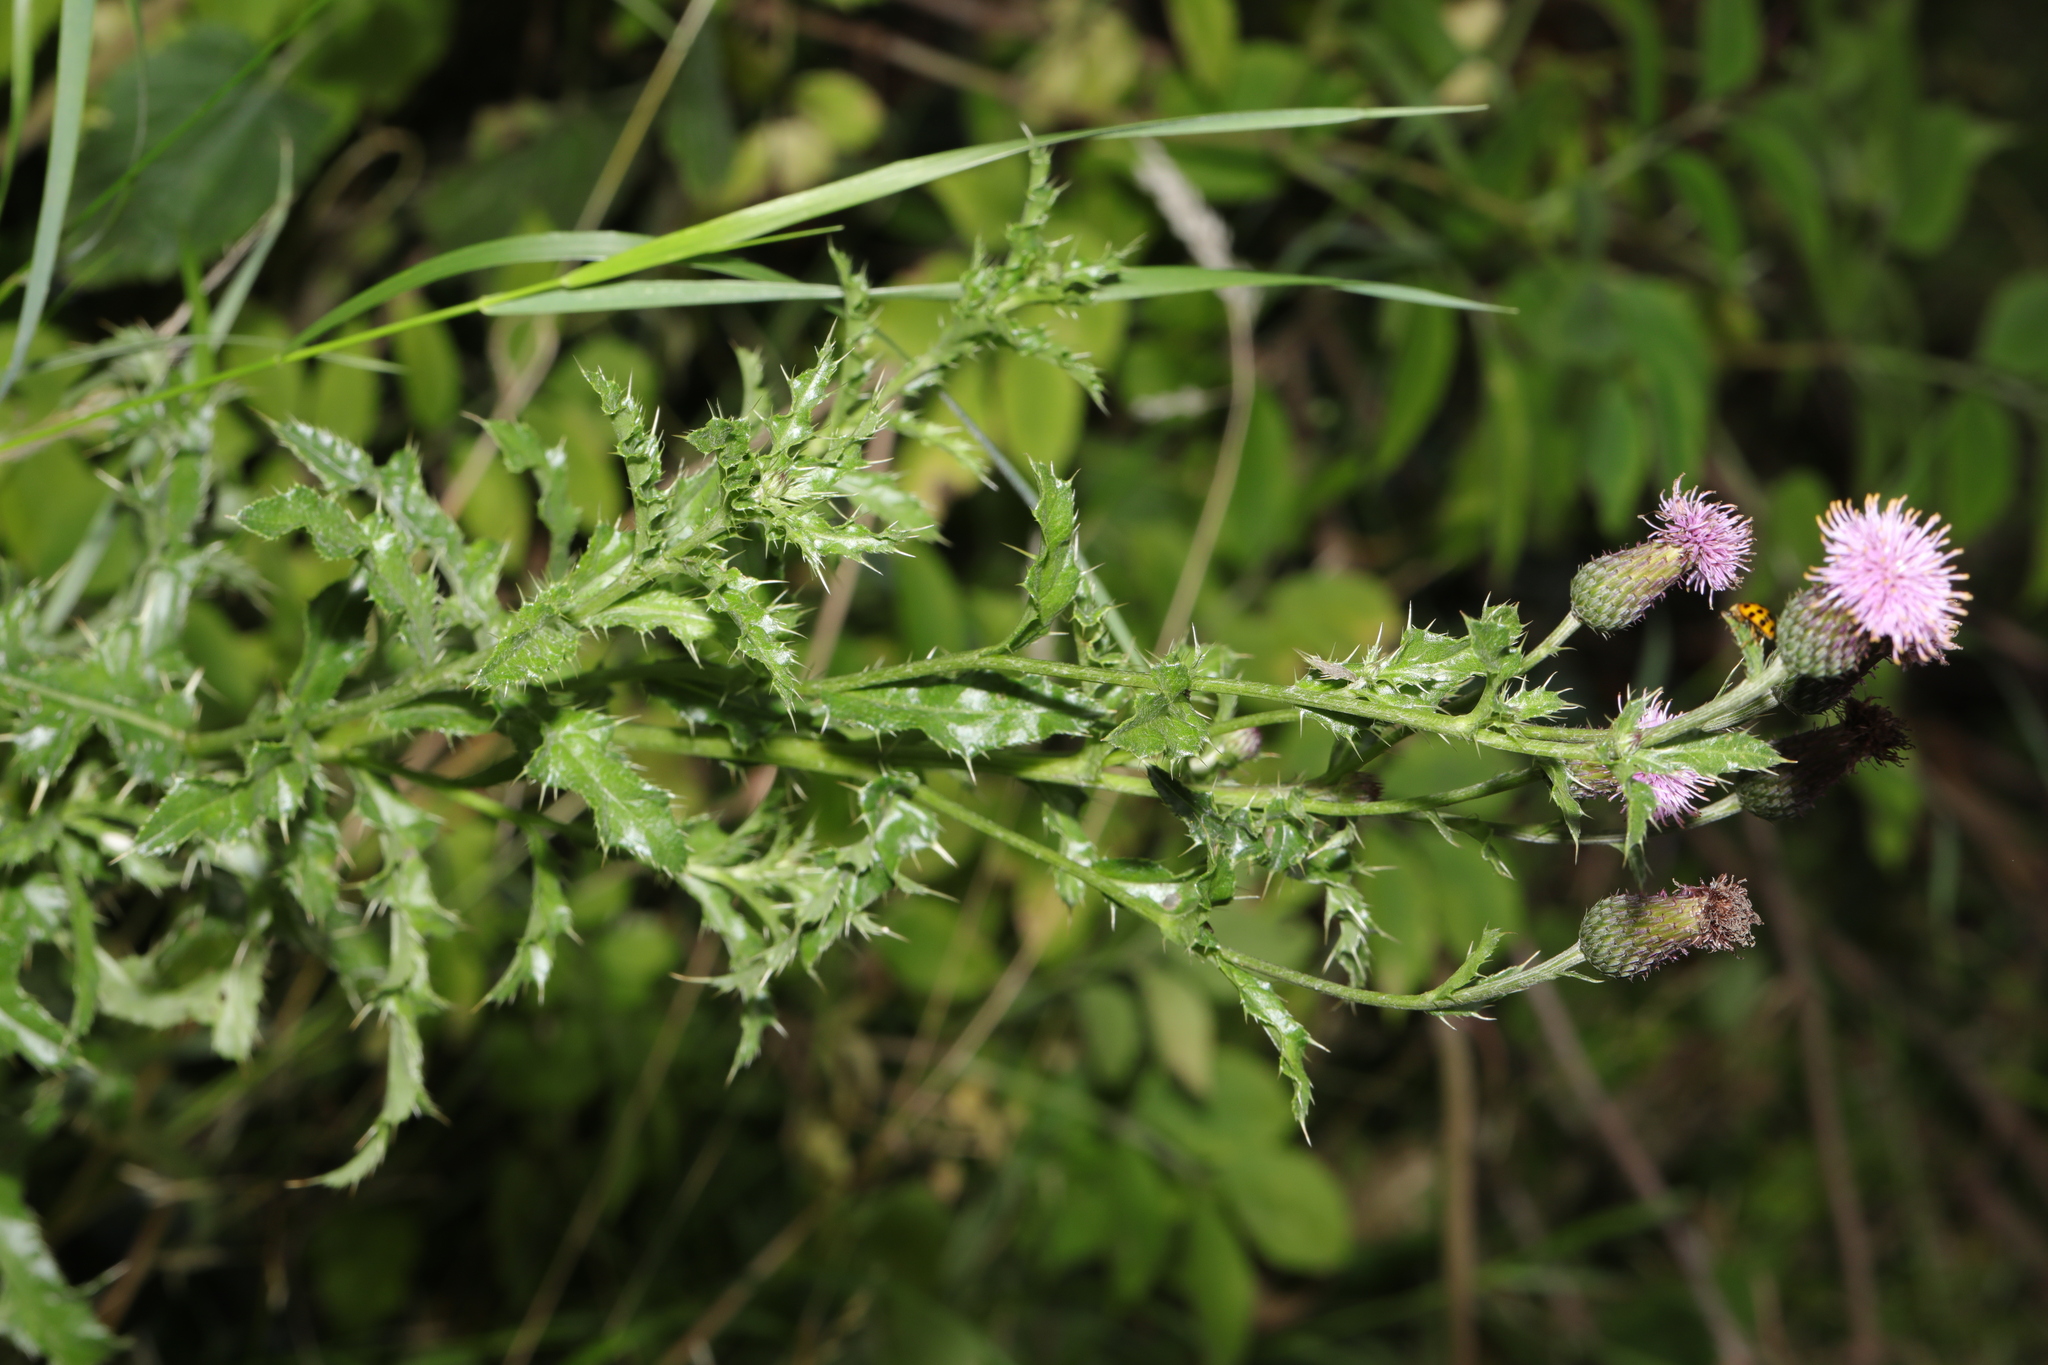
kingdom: Plantae
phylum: Tracheophyta
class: Magnoliopsida
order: Asterales
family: Asteraceae
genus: Cirsium
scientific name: Cirsium arvense
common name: Creeping thistle
